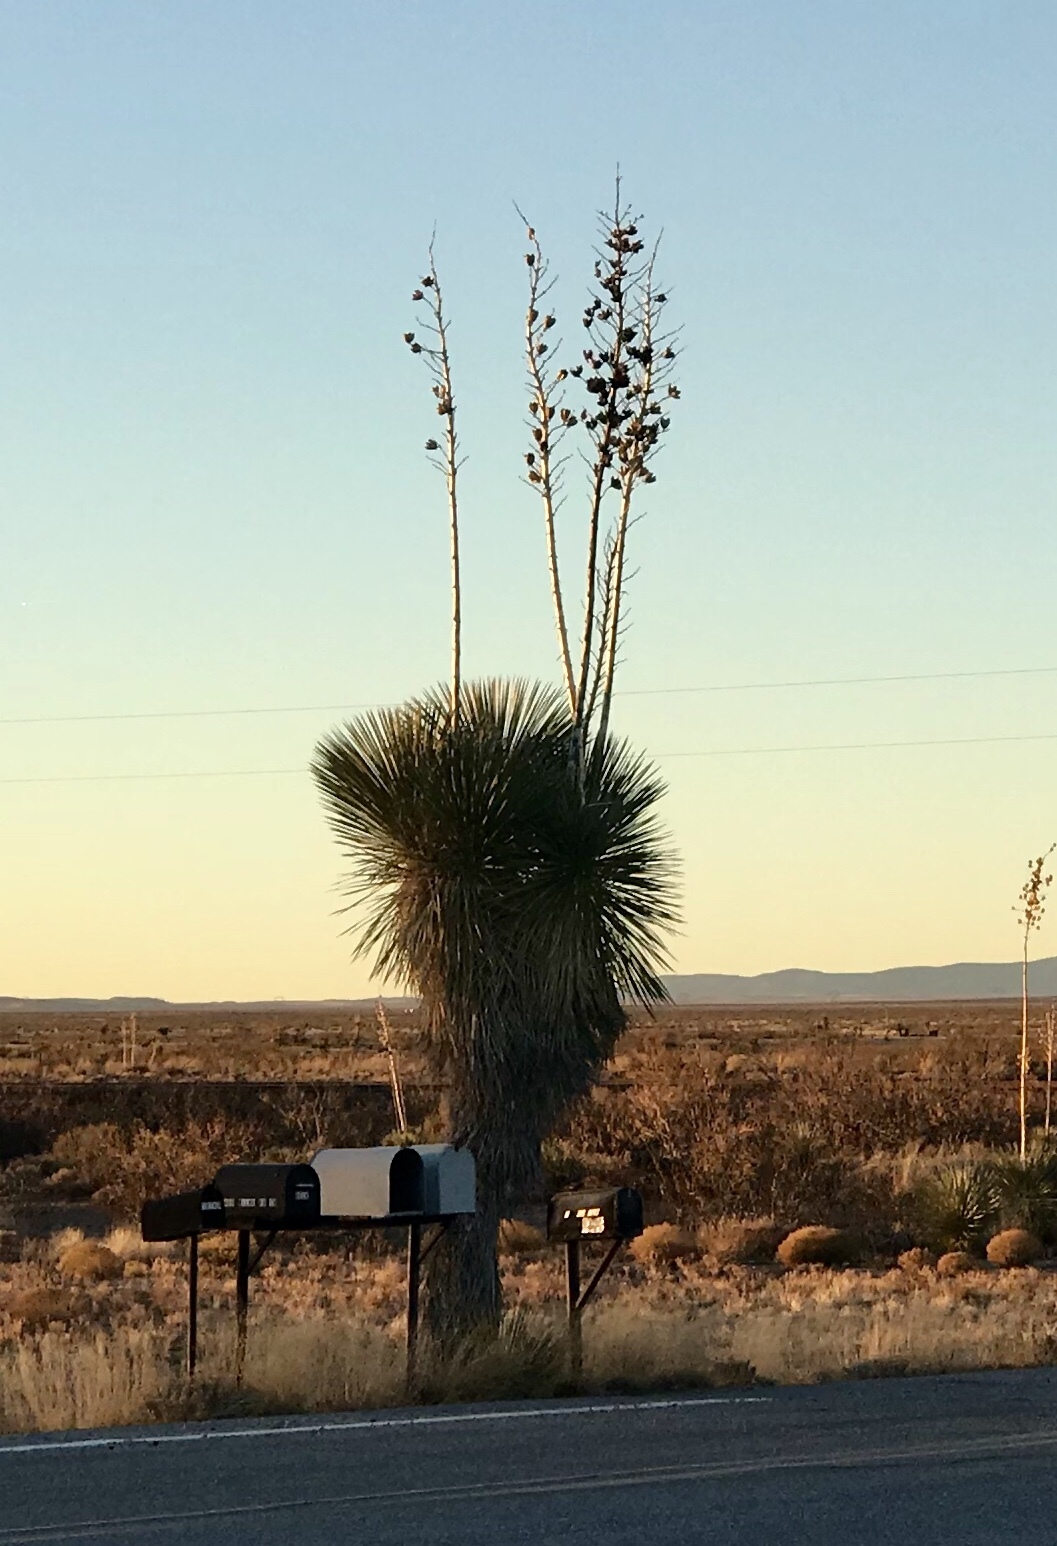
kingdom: Plantae
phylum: Tracheophyta
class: Liliopsida
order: Asparagales
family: Asparagaceae
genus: Yucca
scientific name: Yucca elata
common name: Palmella
